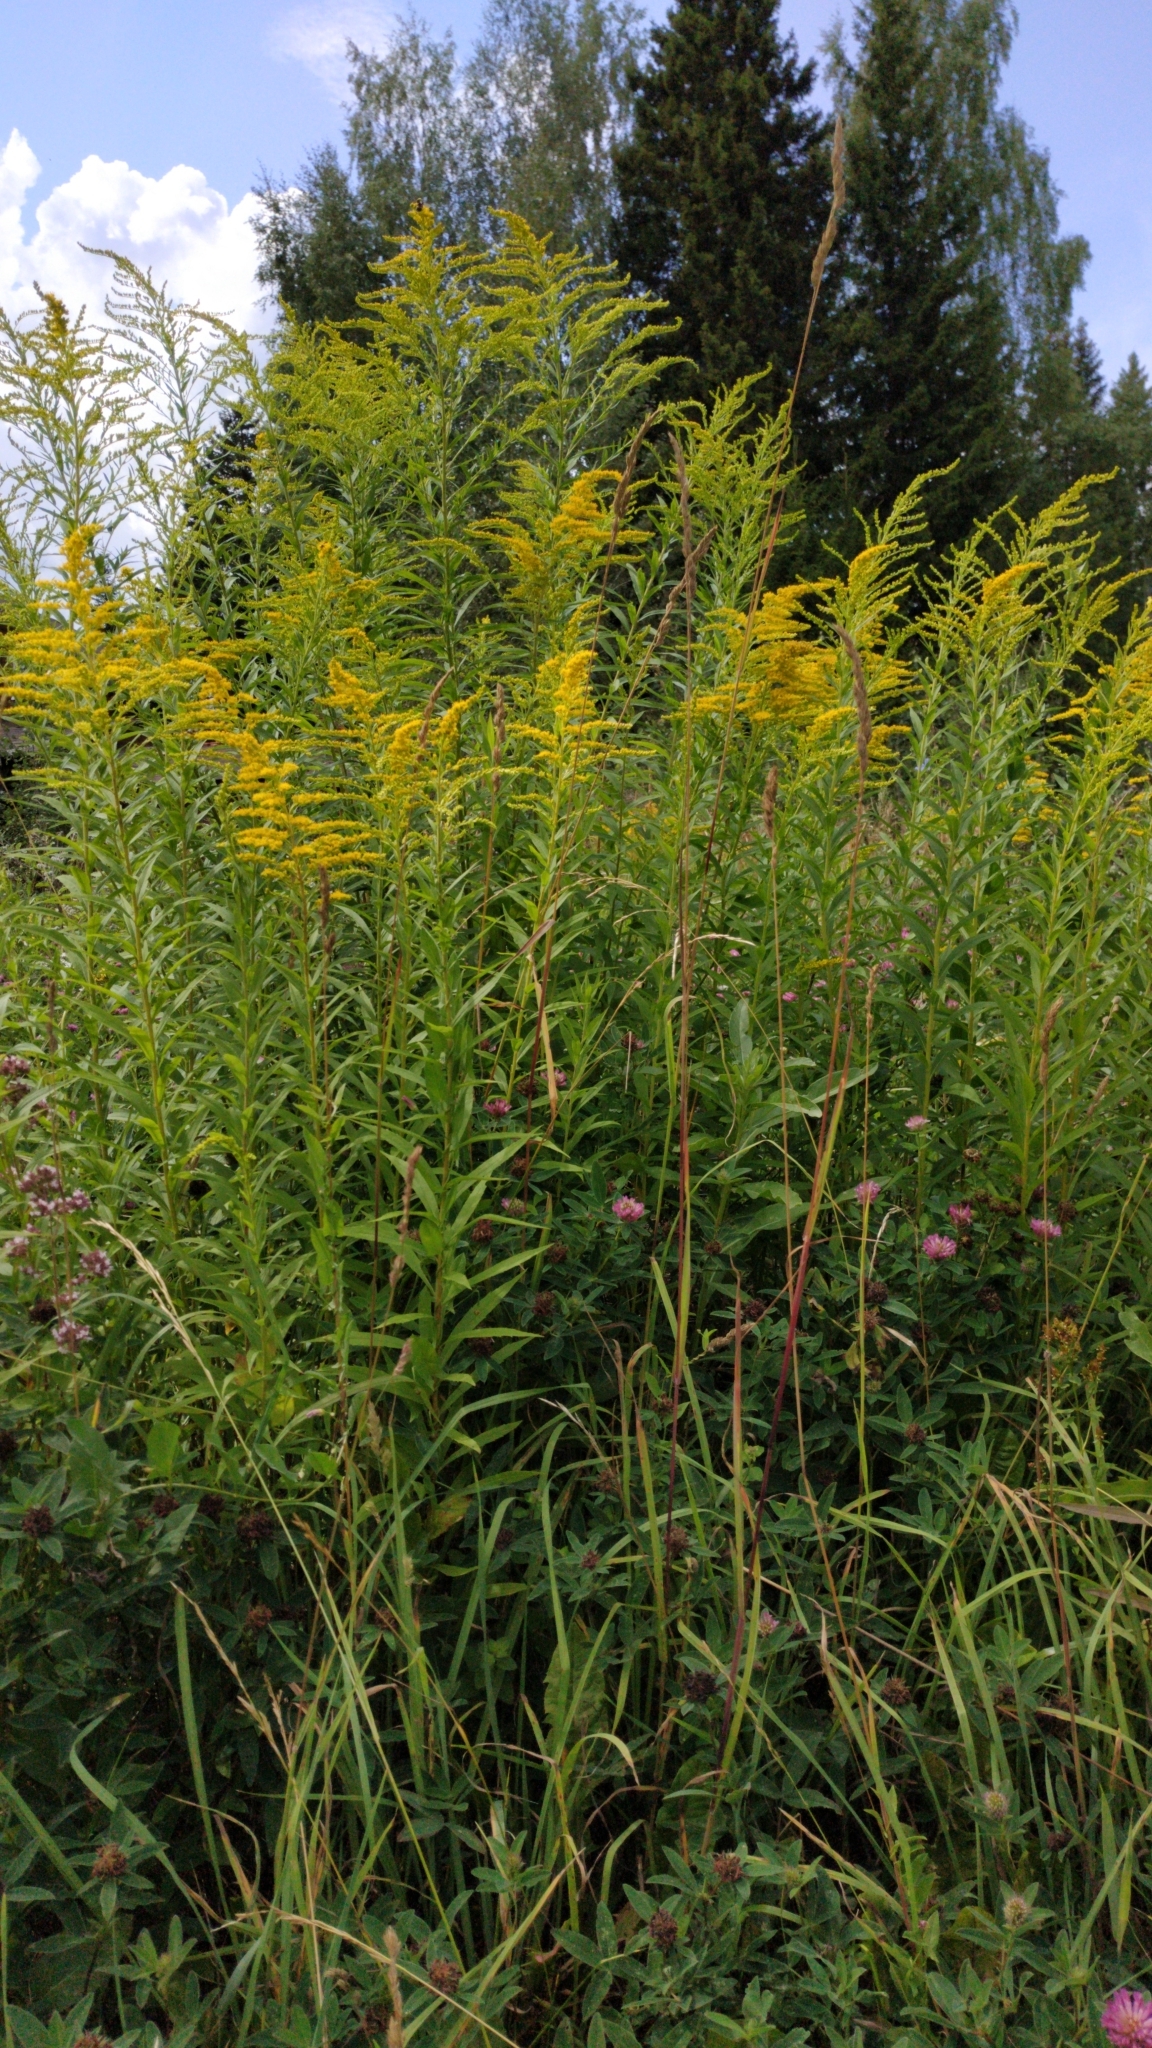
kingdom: Plantae
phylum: Tracheophyta
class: Magnoliopsida
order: Asterales
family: Asteraceae
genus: Solidago
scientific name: Solidago canadensis
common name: Canada goldenrod
